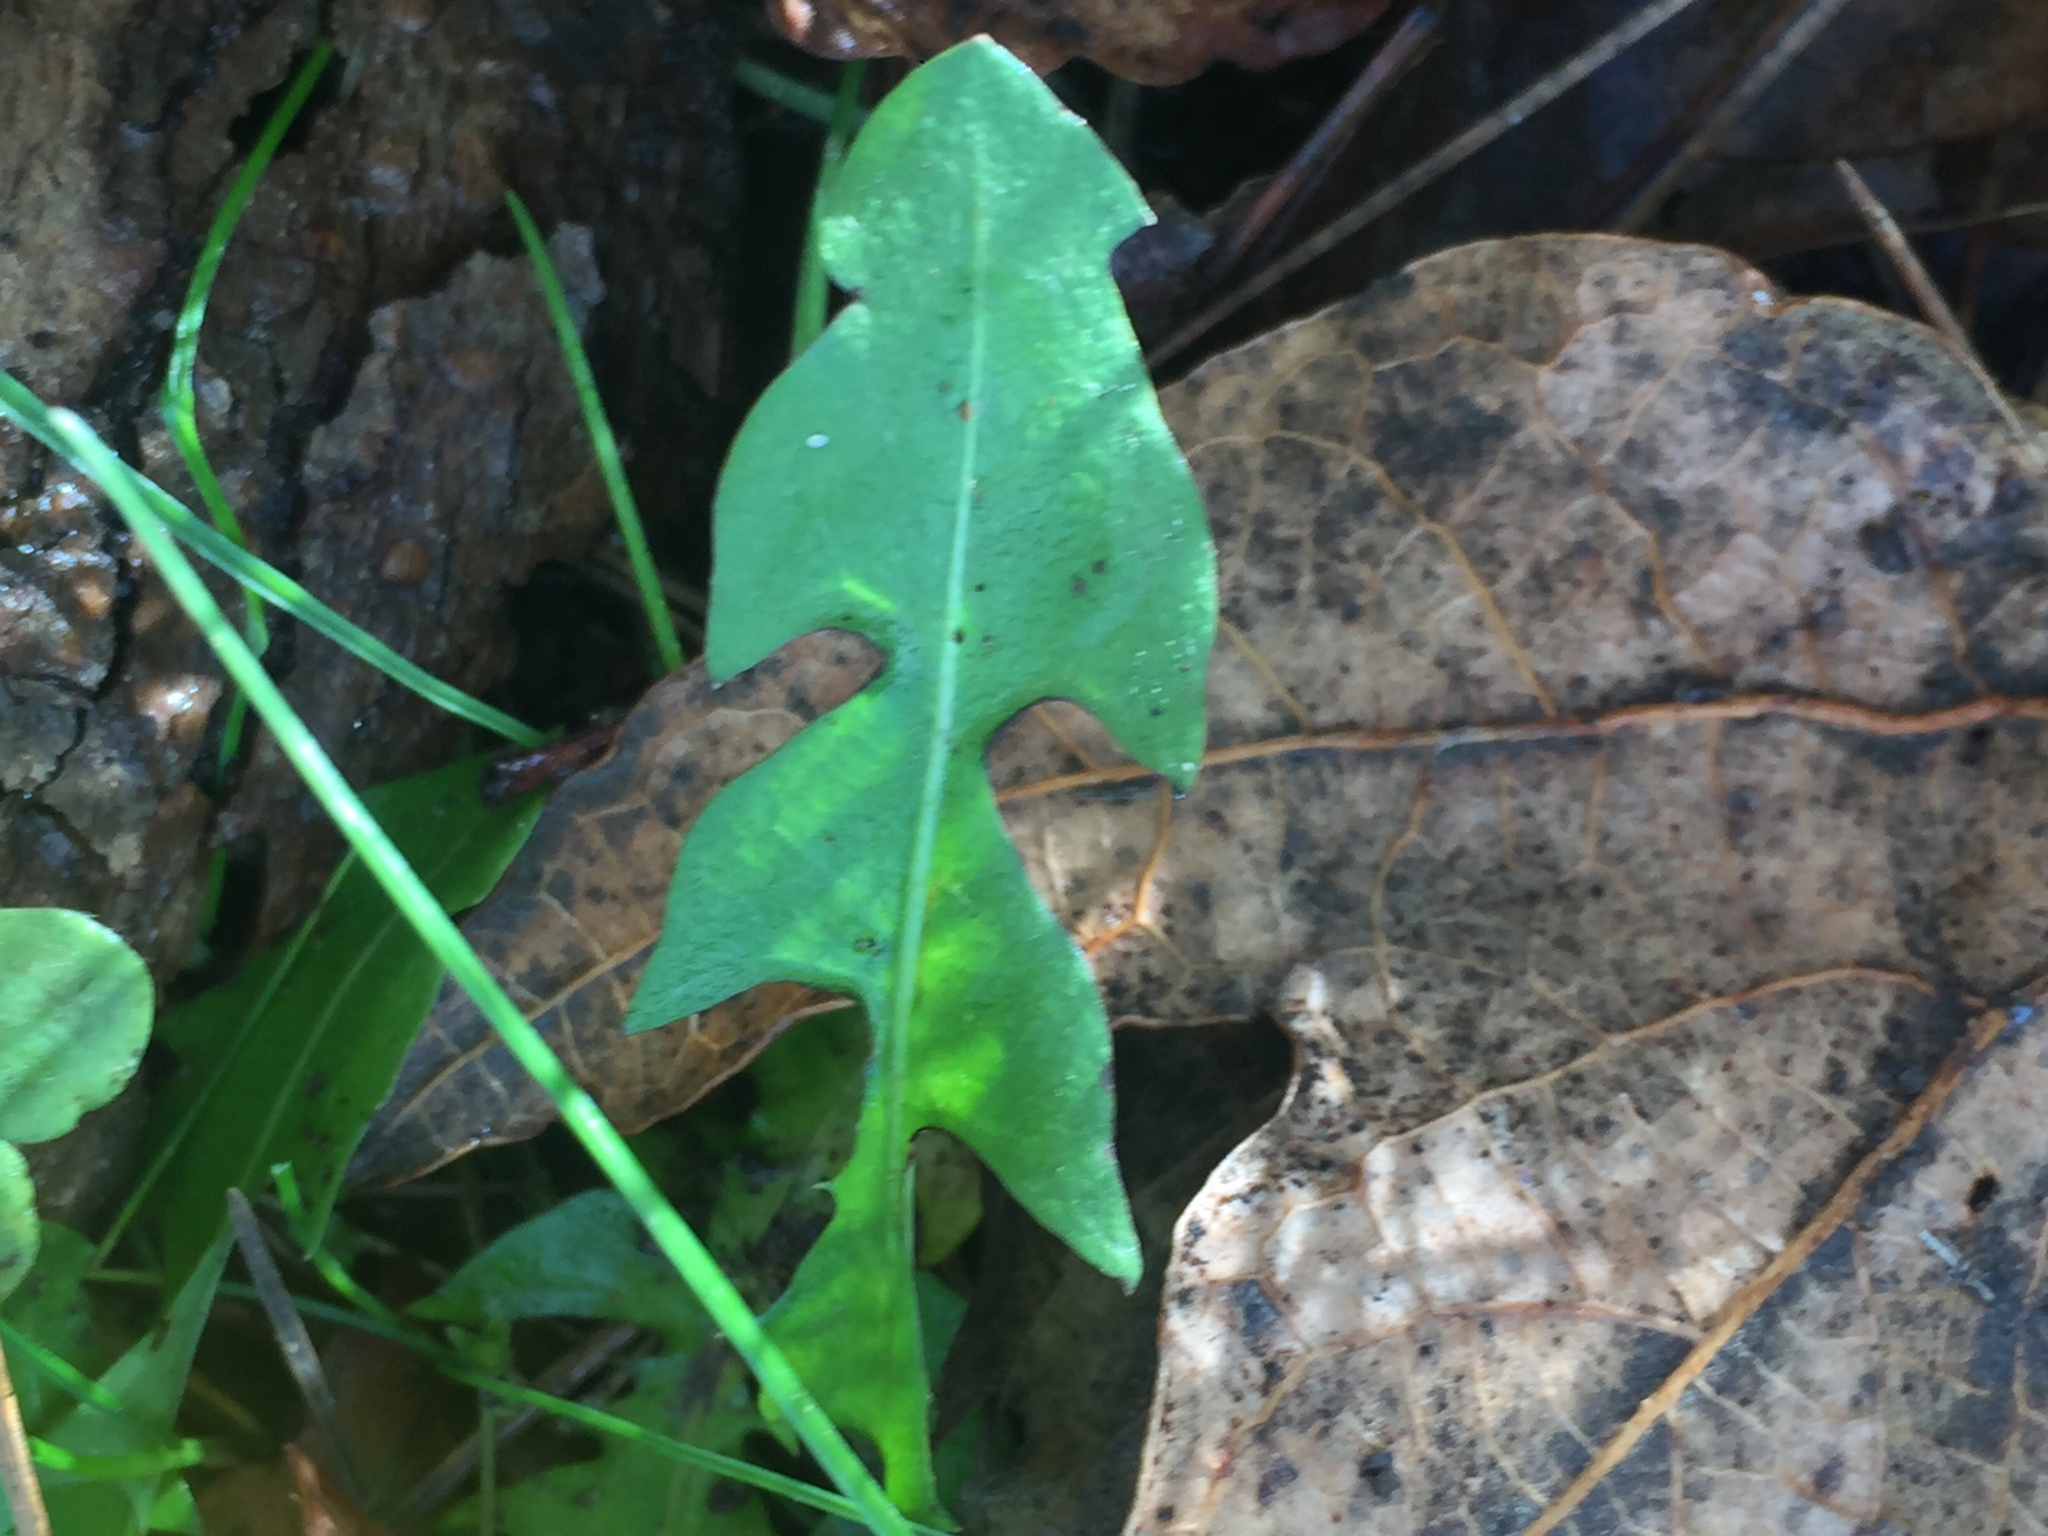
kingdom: Plantae
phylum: Tracheophyta
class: Magnoliopsida
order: Asterales
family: Asteraceae
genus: Taraxacum
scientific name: Taraxacum officinale
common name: Common dandelion
